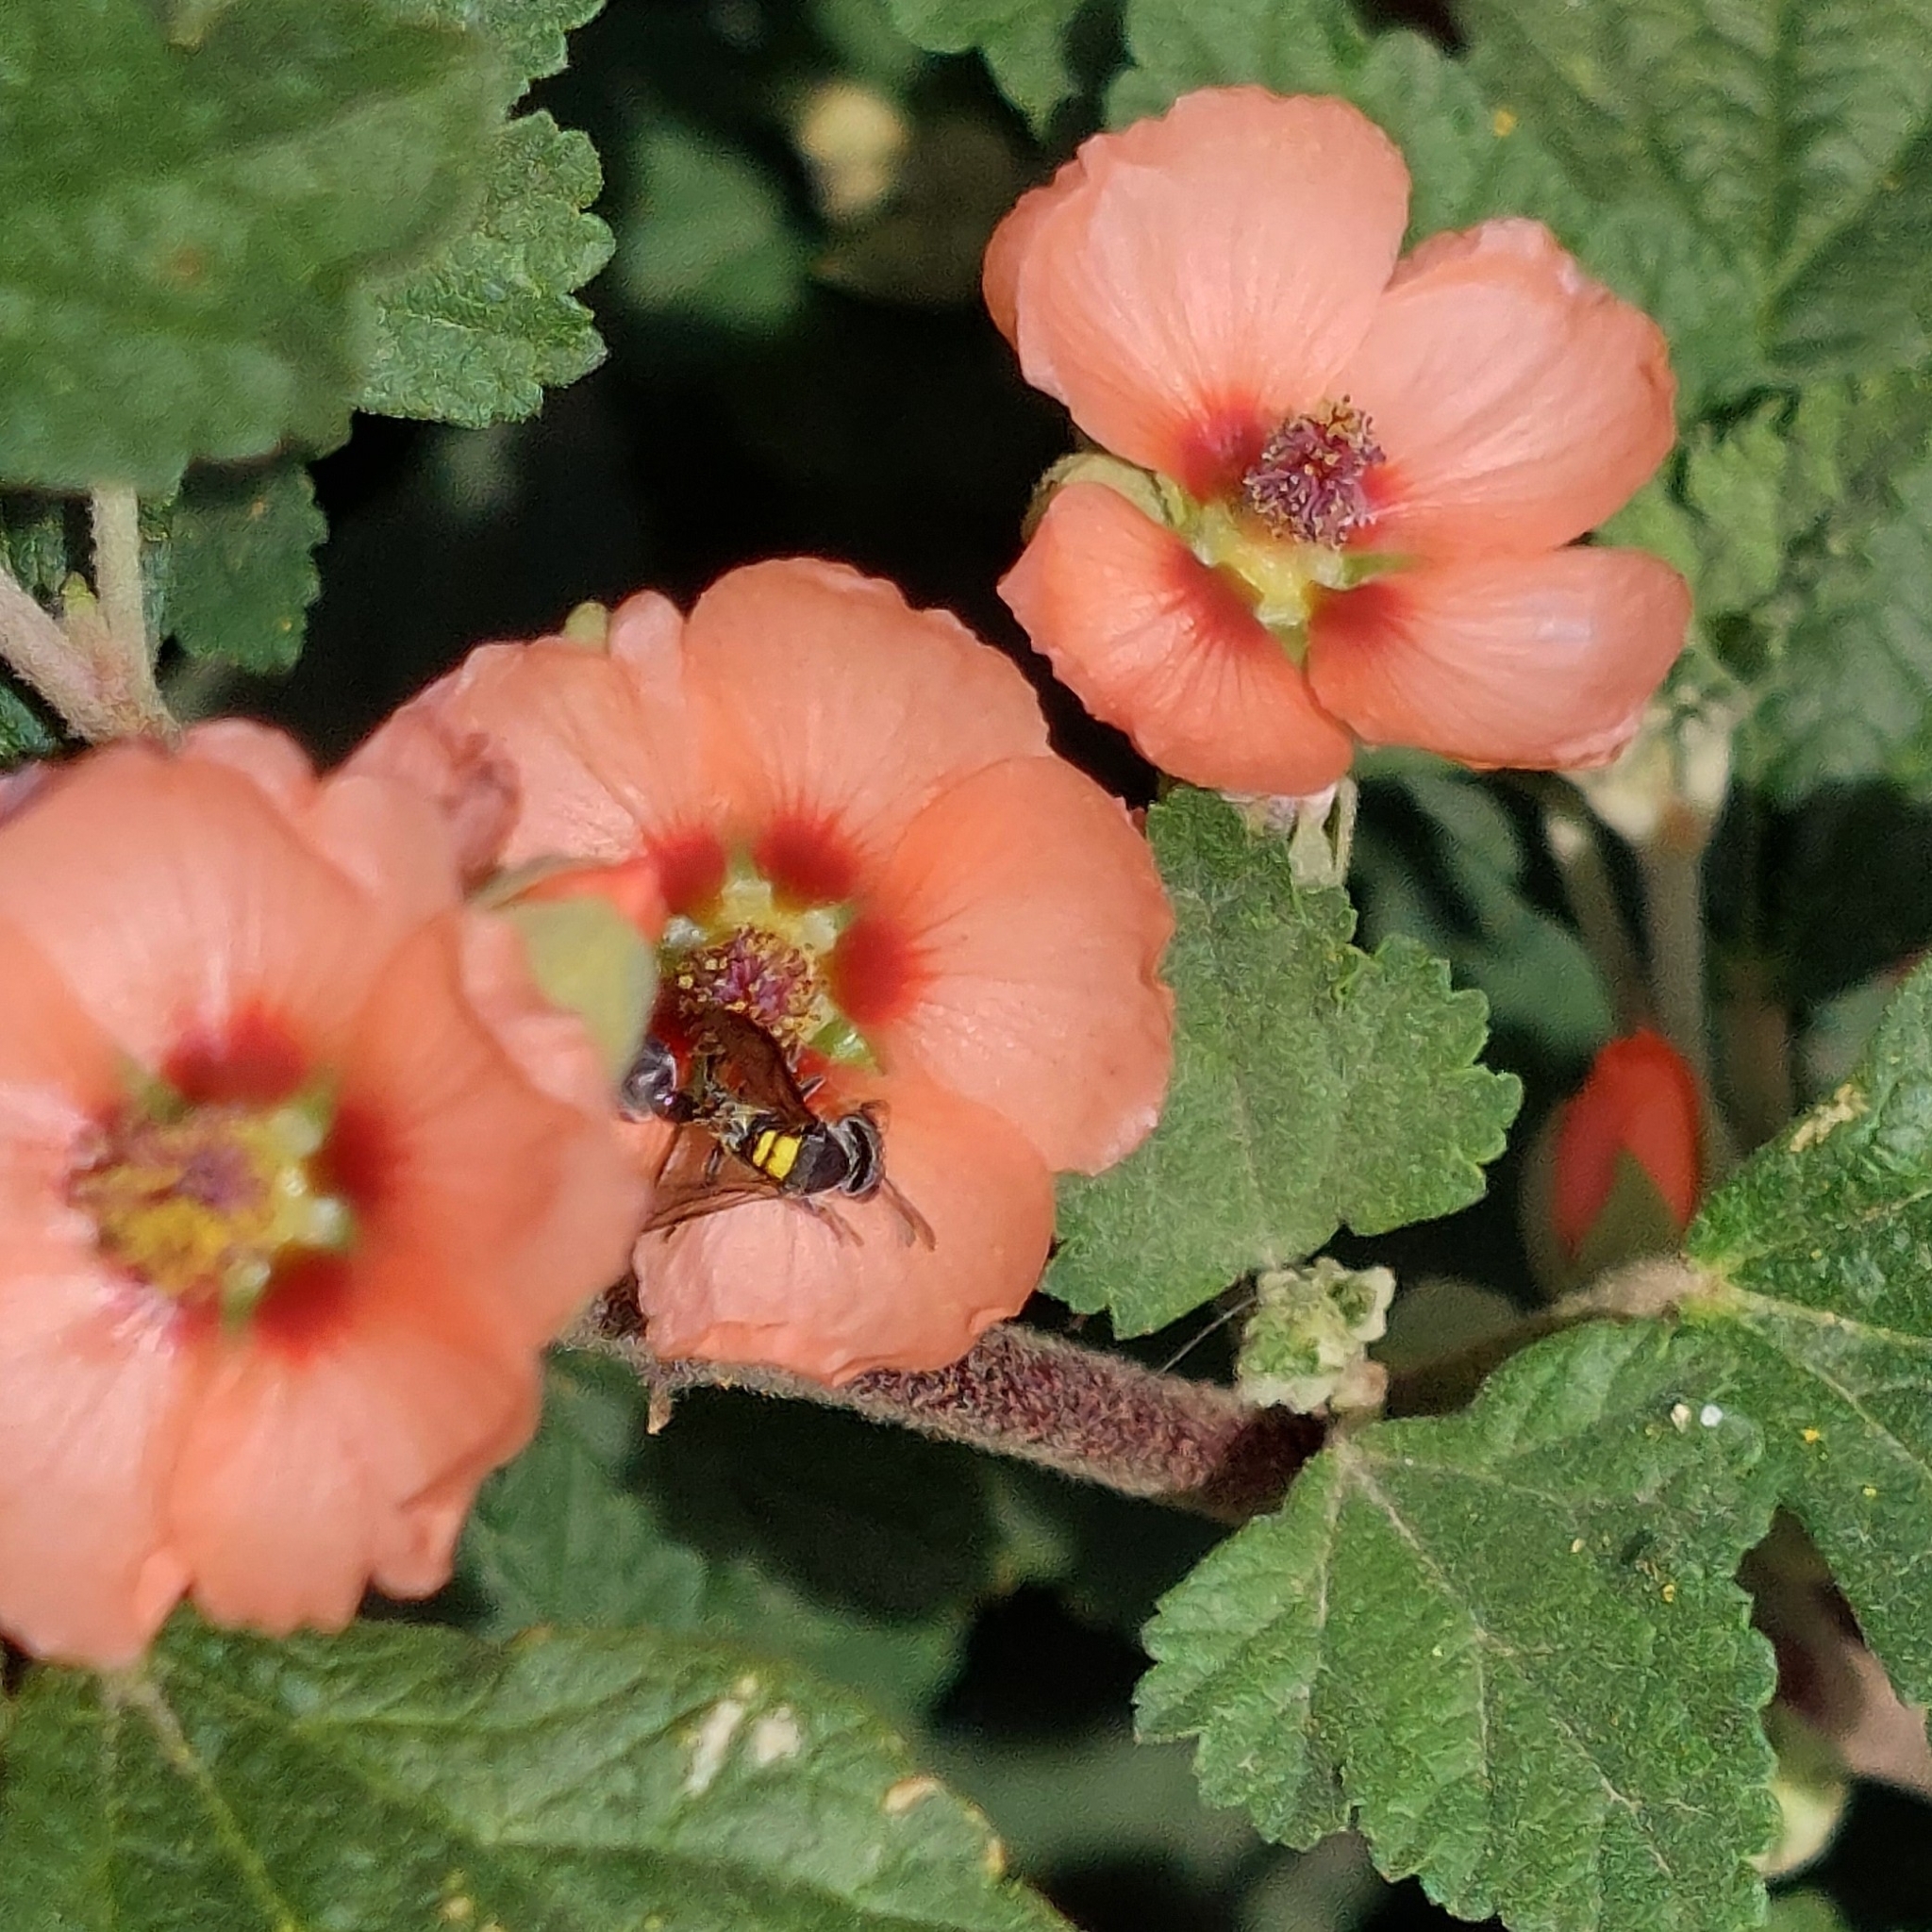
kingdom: Animalia
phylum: Arthropoda
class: Insecta
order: Hymenoptera
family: Eumenidae
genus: Polybia
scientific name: Polybia scutellaris
